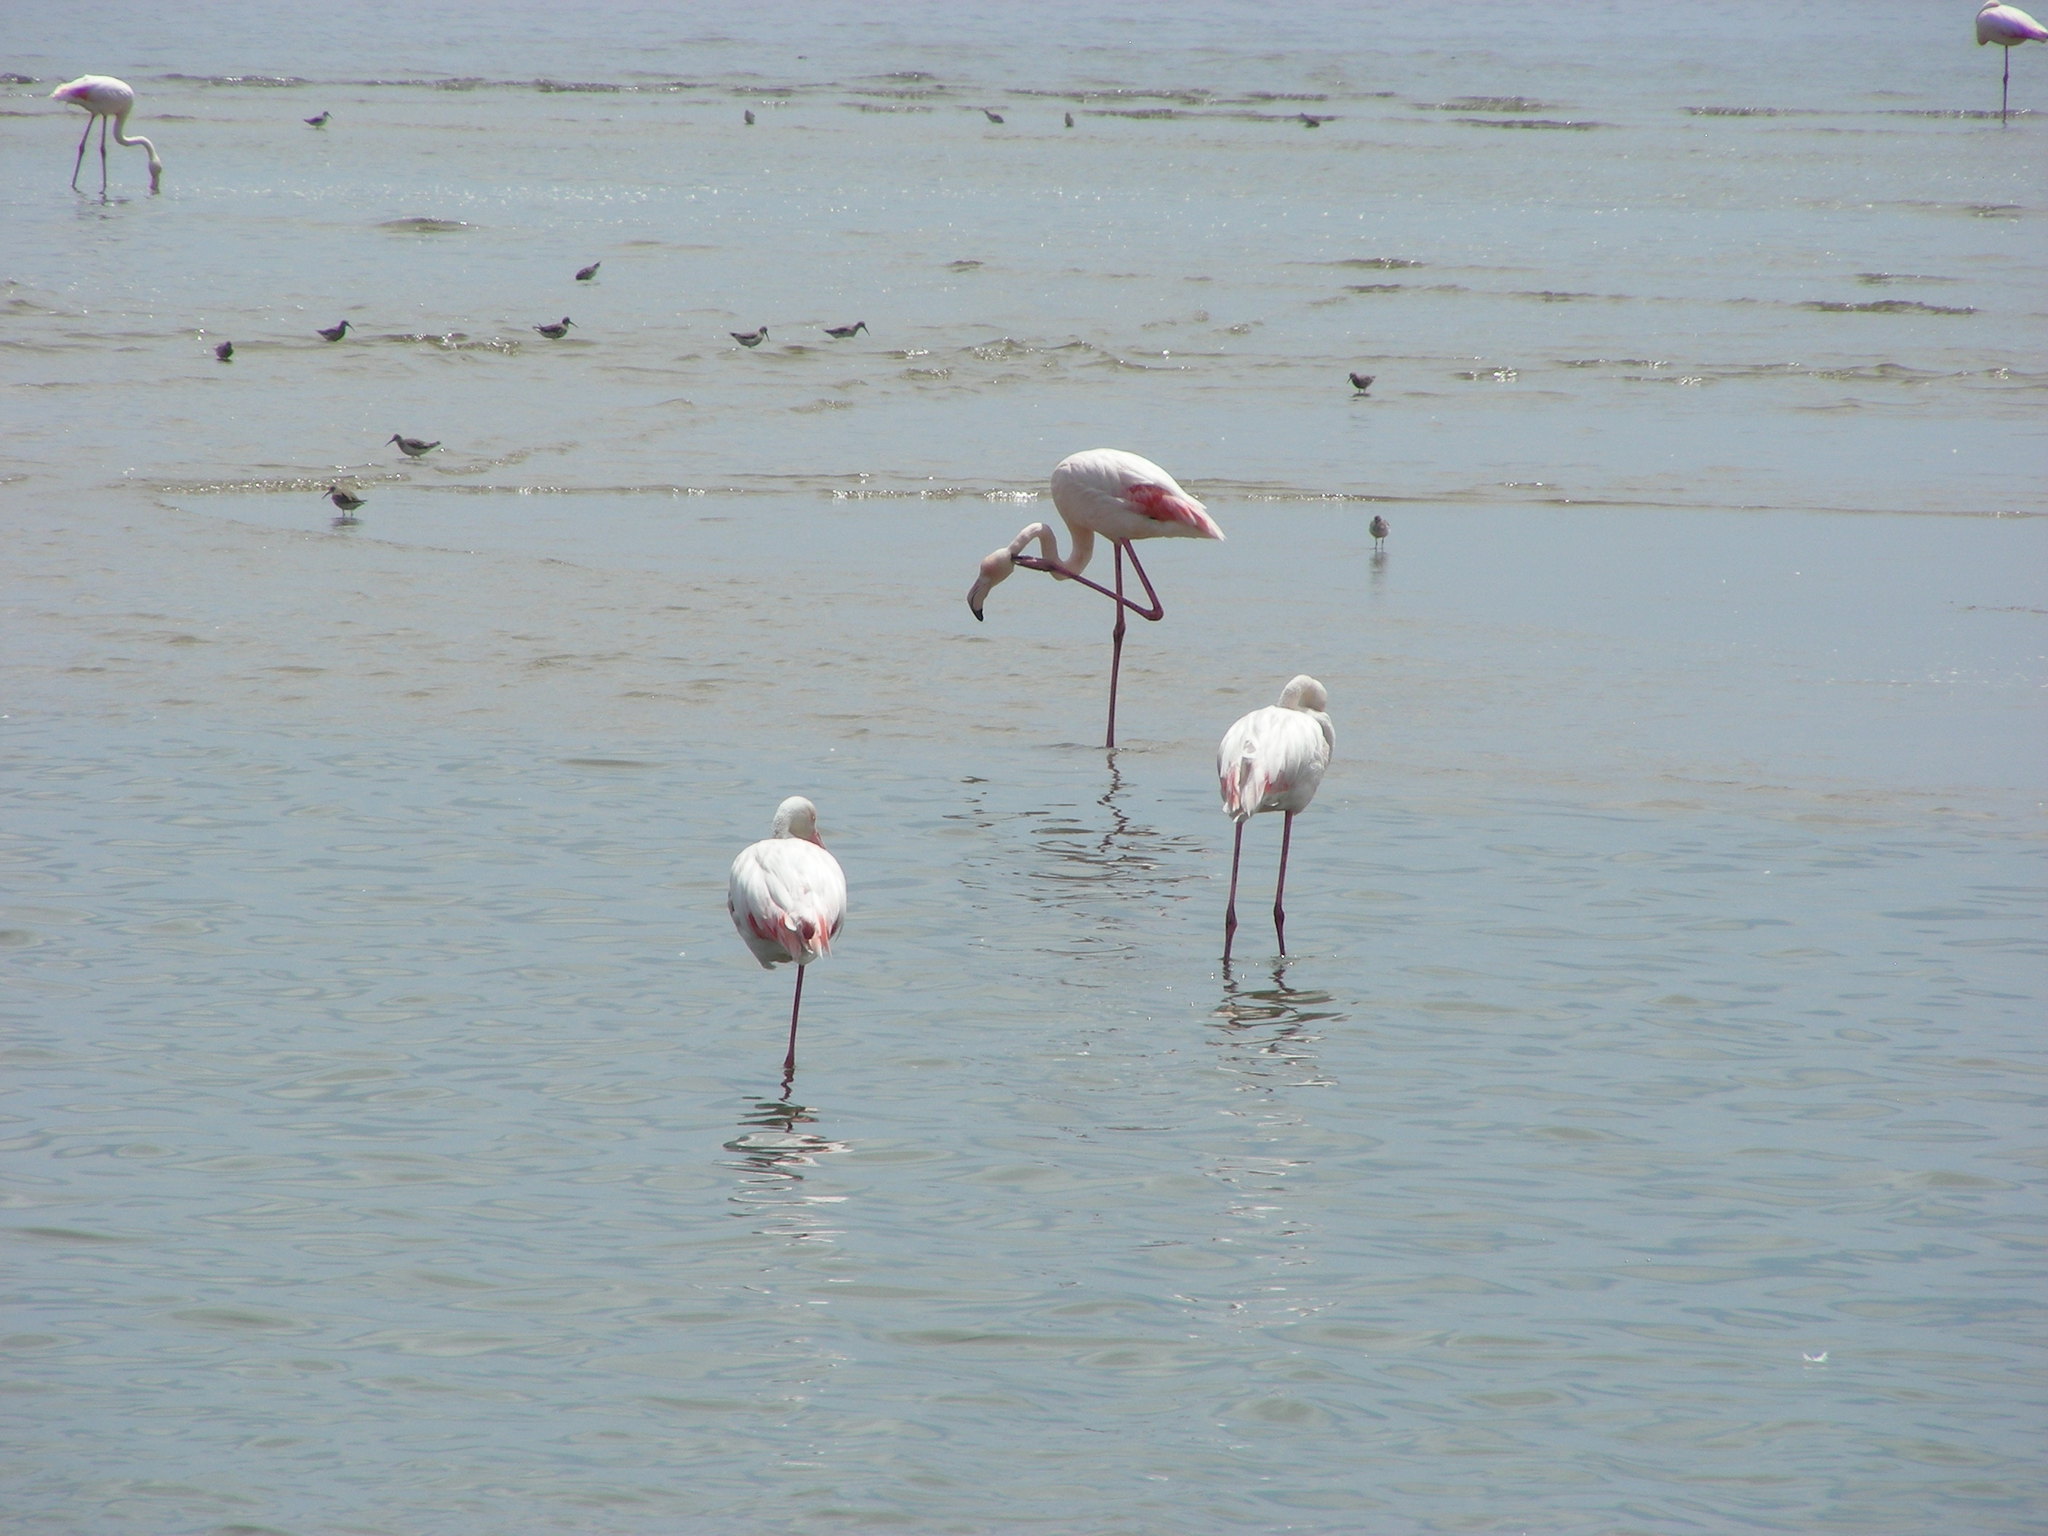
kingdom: Animalia
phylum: Chordata
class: Aves
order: Phoenicopteriformes
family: Phoenicopteridae
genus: Phoeniconaias
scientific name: Phoeniconaias minor
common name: Lesser flamingo
